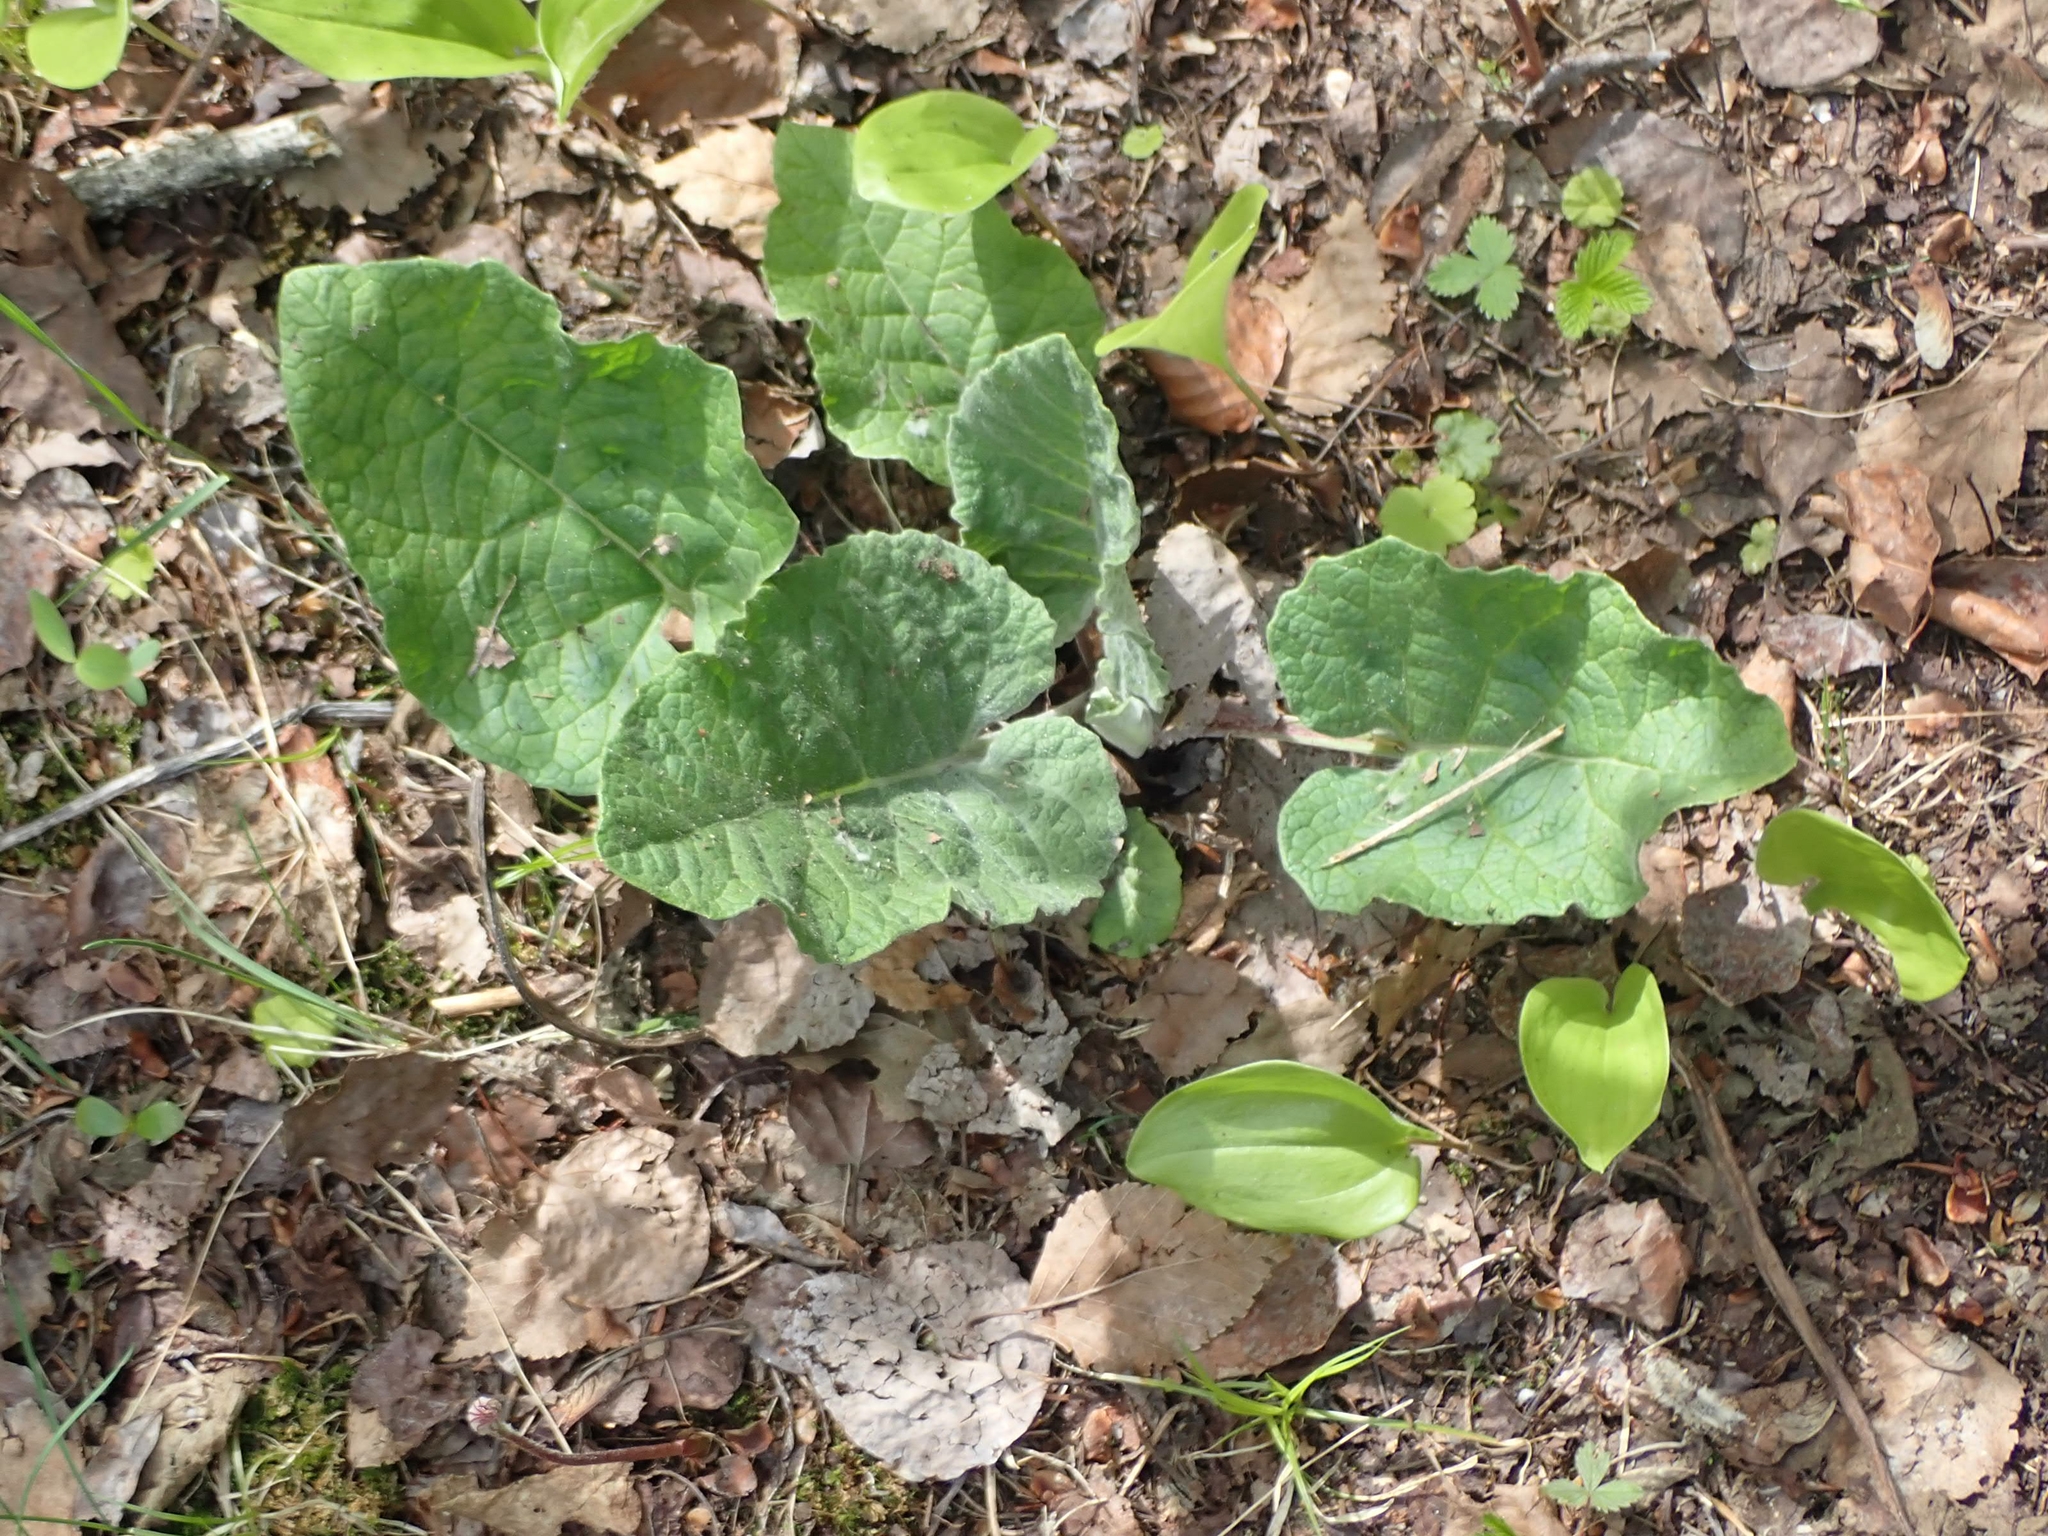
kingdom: Plantae
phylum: Tracheophyta
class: Magnoliopsida
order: Asterales
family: Asteraceae
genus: Arctium
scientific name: Arctium
